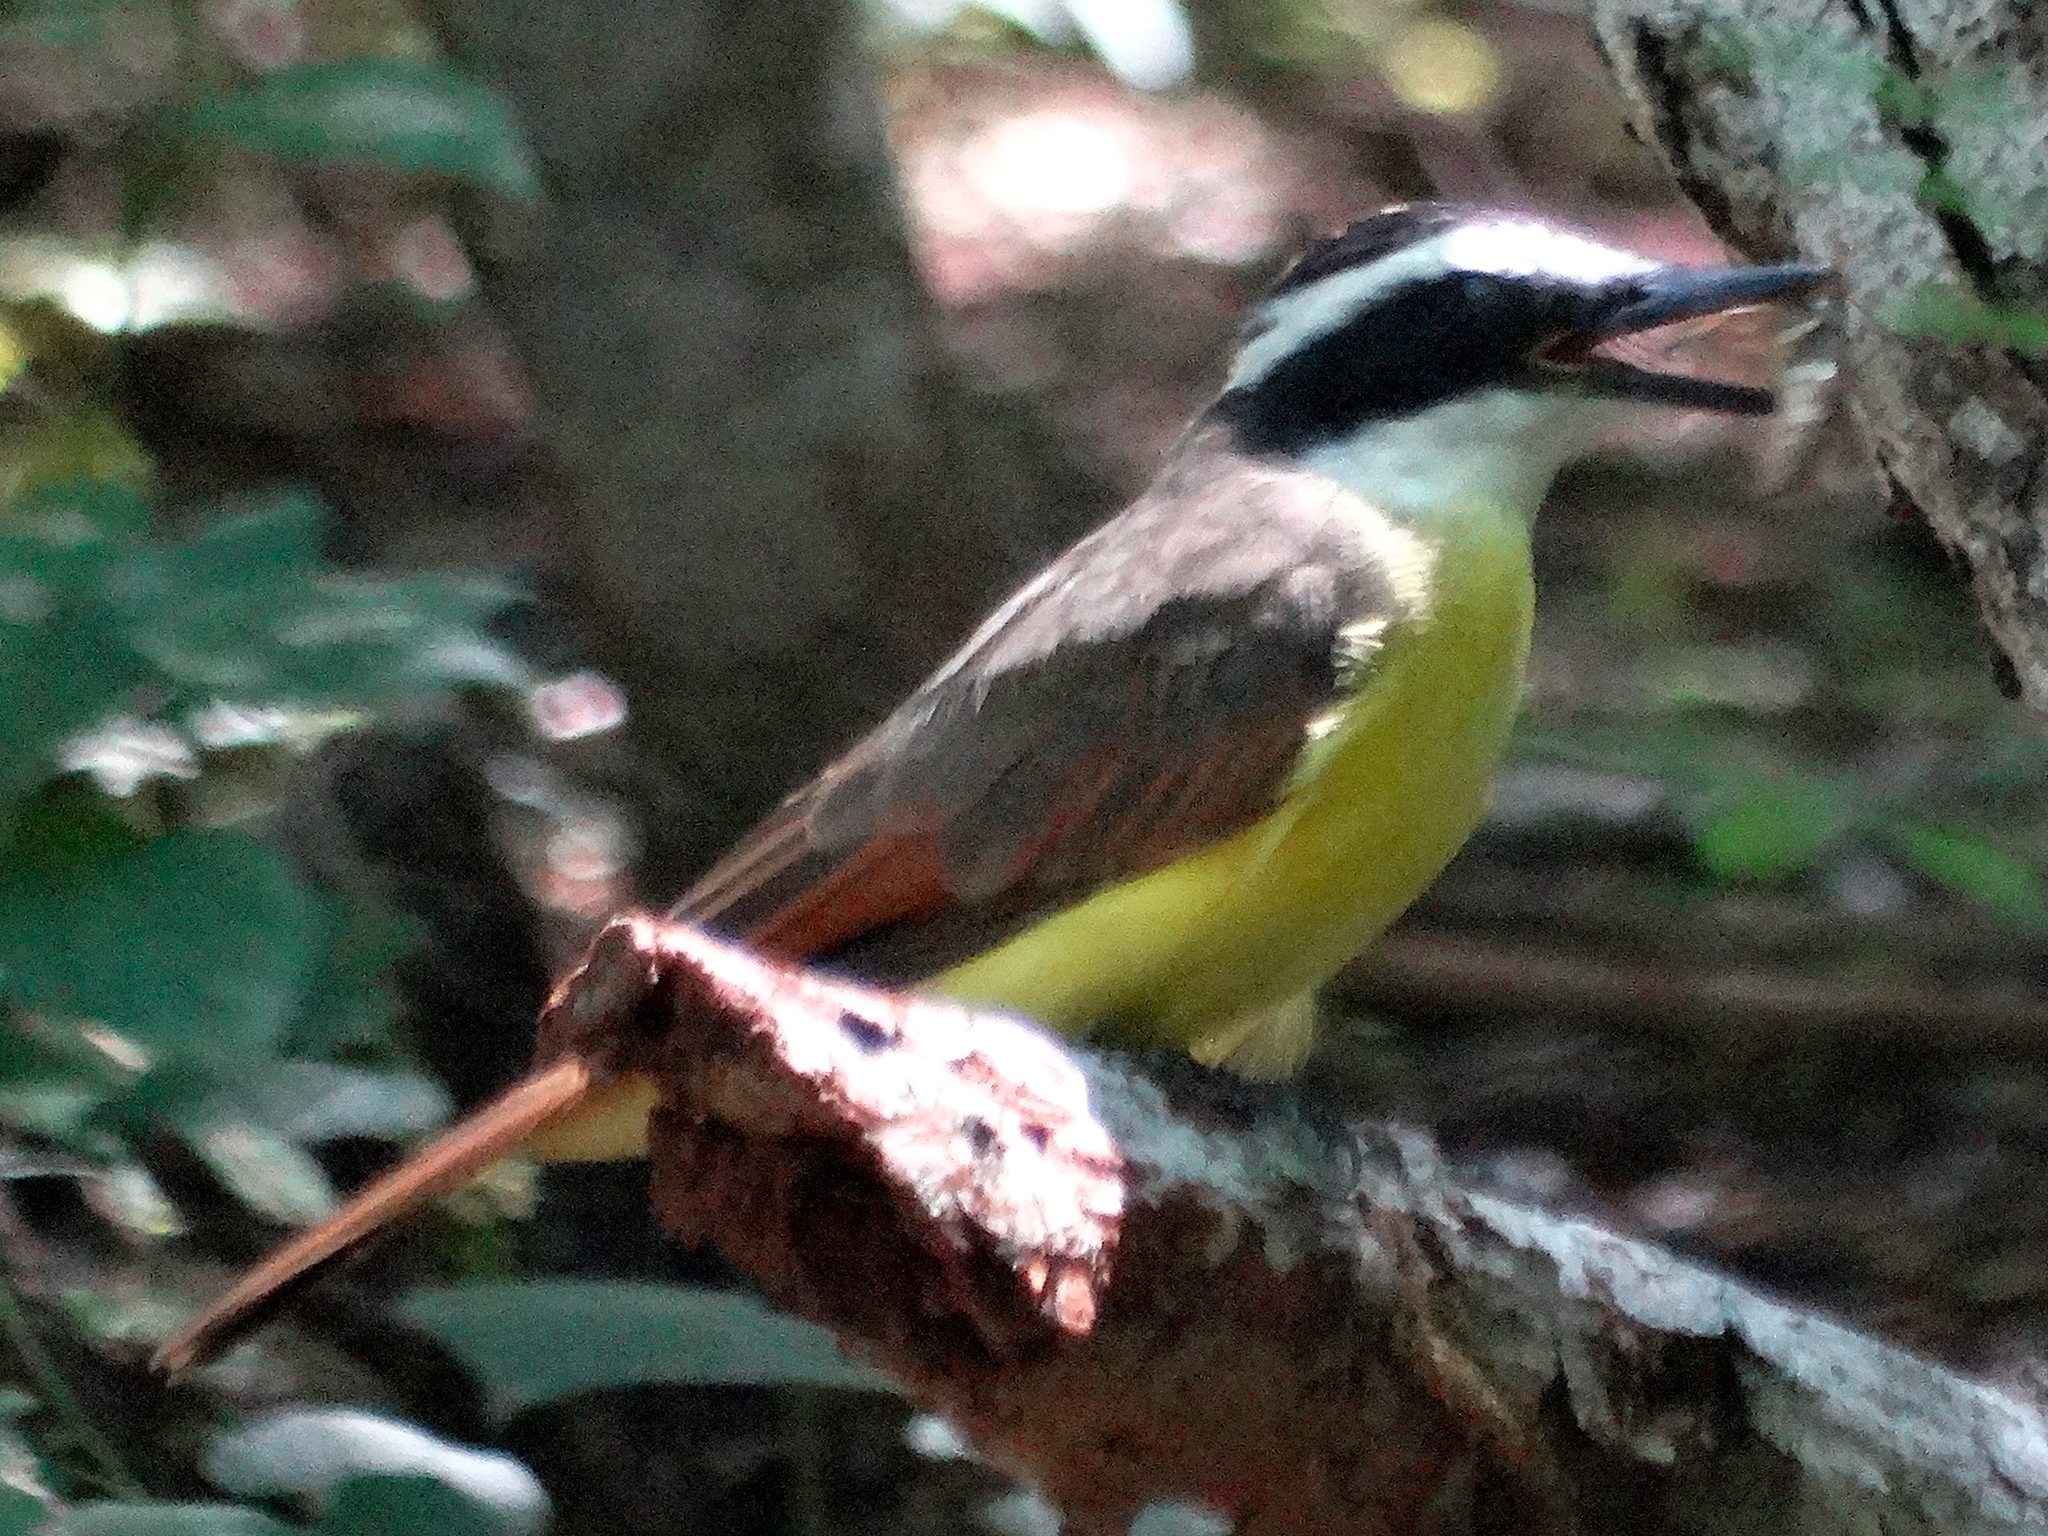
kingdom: Animalia
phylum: Chordata
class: Aves
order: Passeriformes
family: Tyrannidae
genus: Pitangus
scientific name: Pitangus sulphuratus
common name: Great kiskadee
